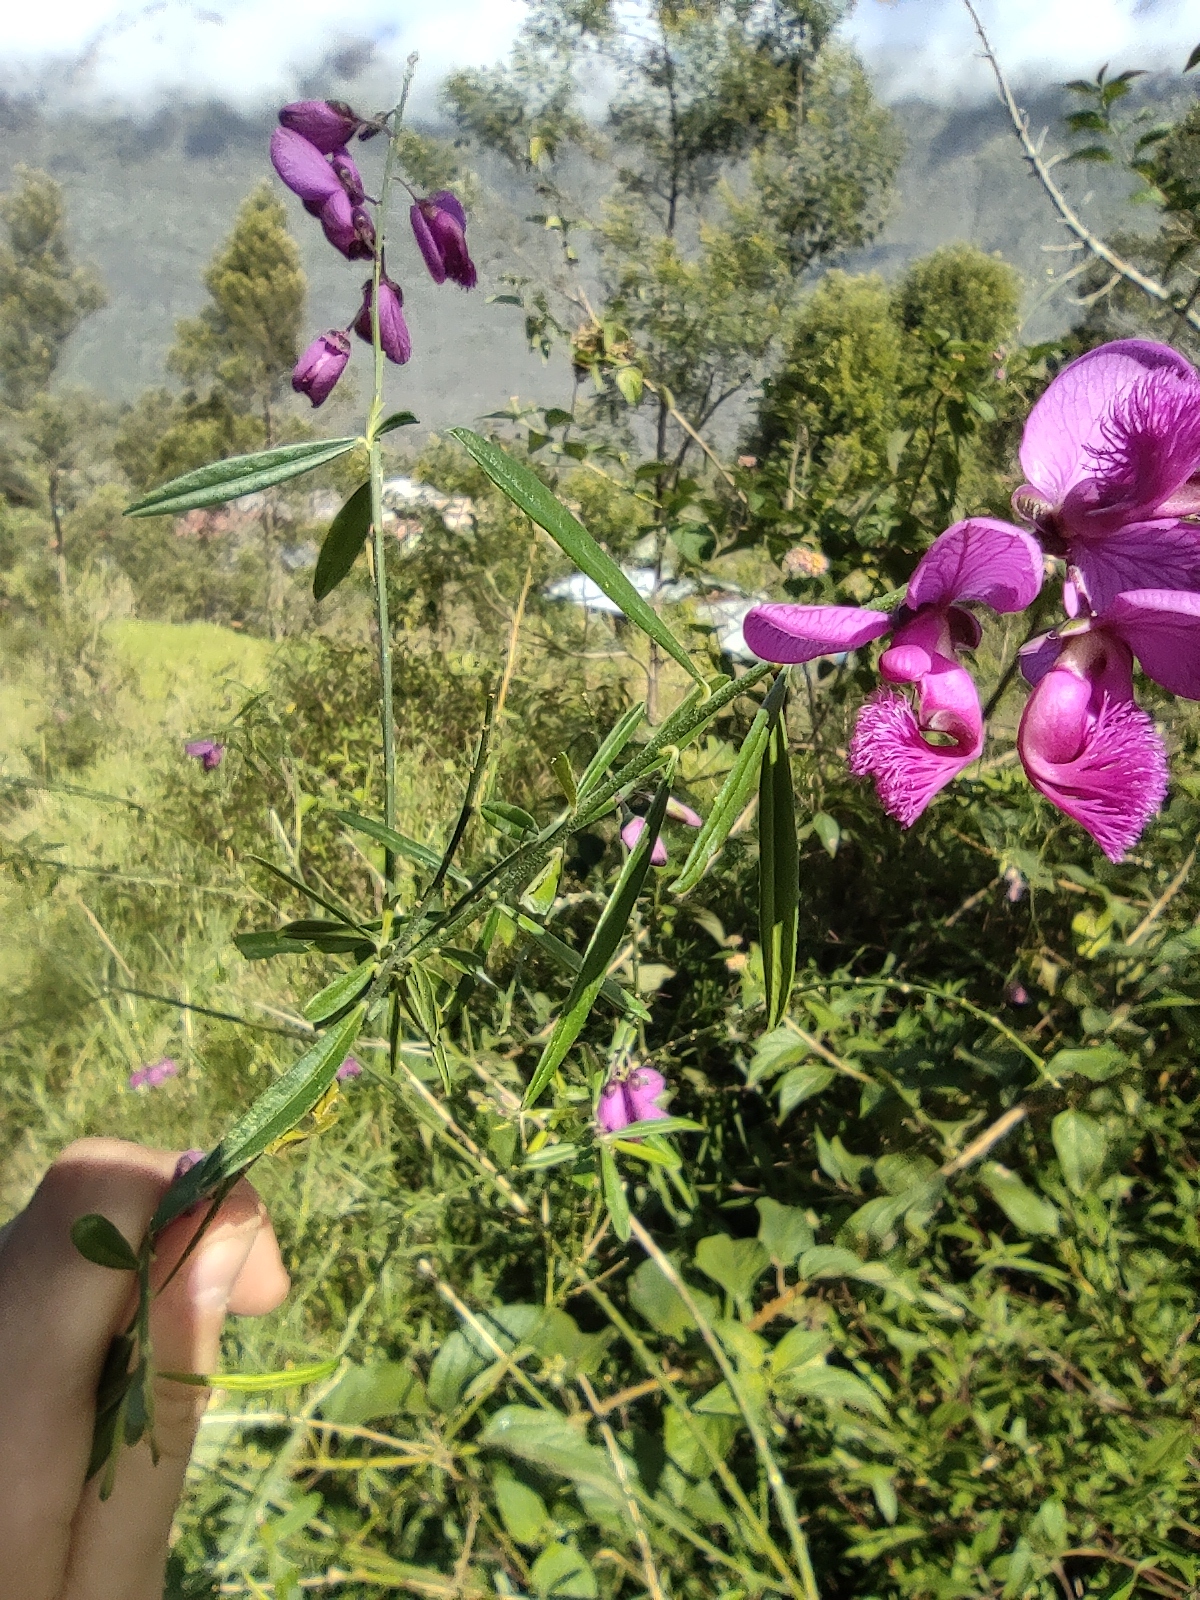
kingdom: Plantae
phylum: Tracheophyta
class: Magnoliopsida
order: Fabales
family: Polygalaceae
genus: Polygala
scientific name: Polygala virgata
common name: Milkwort
